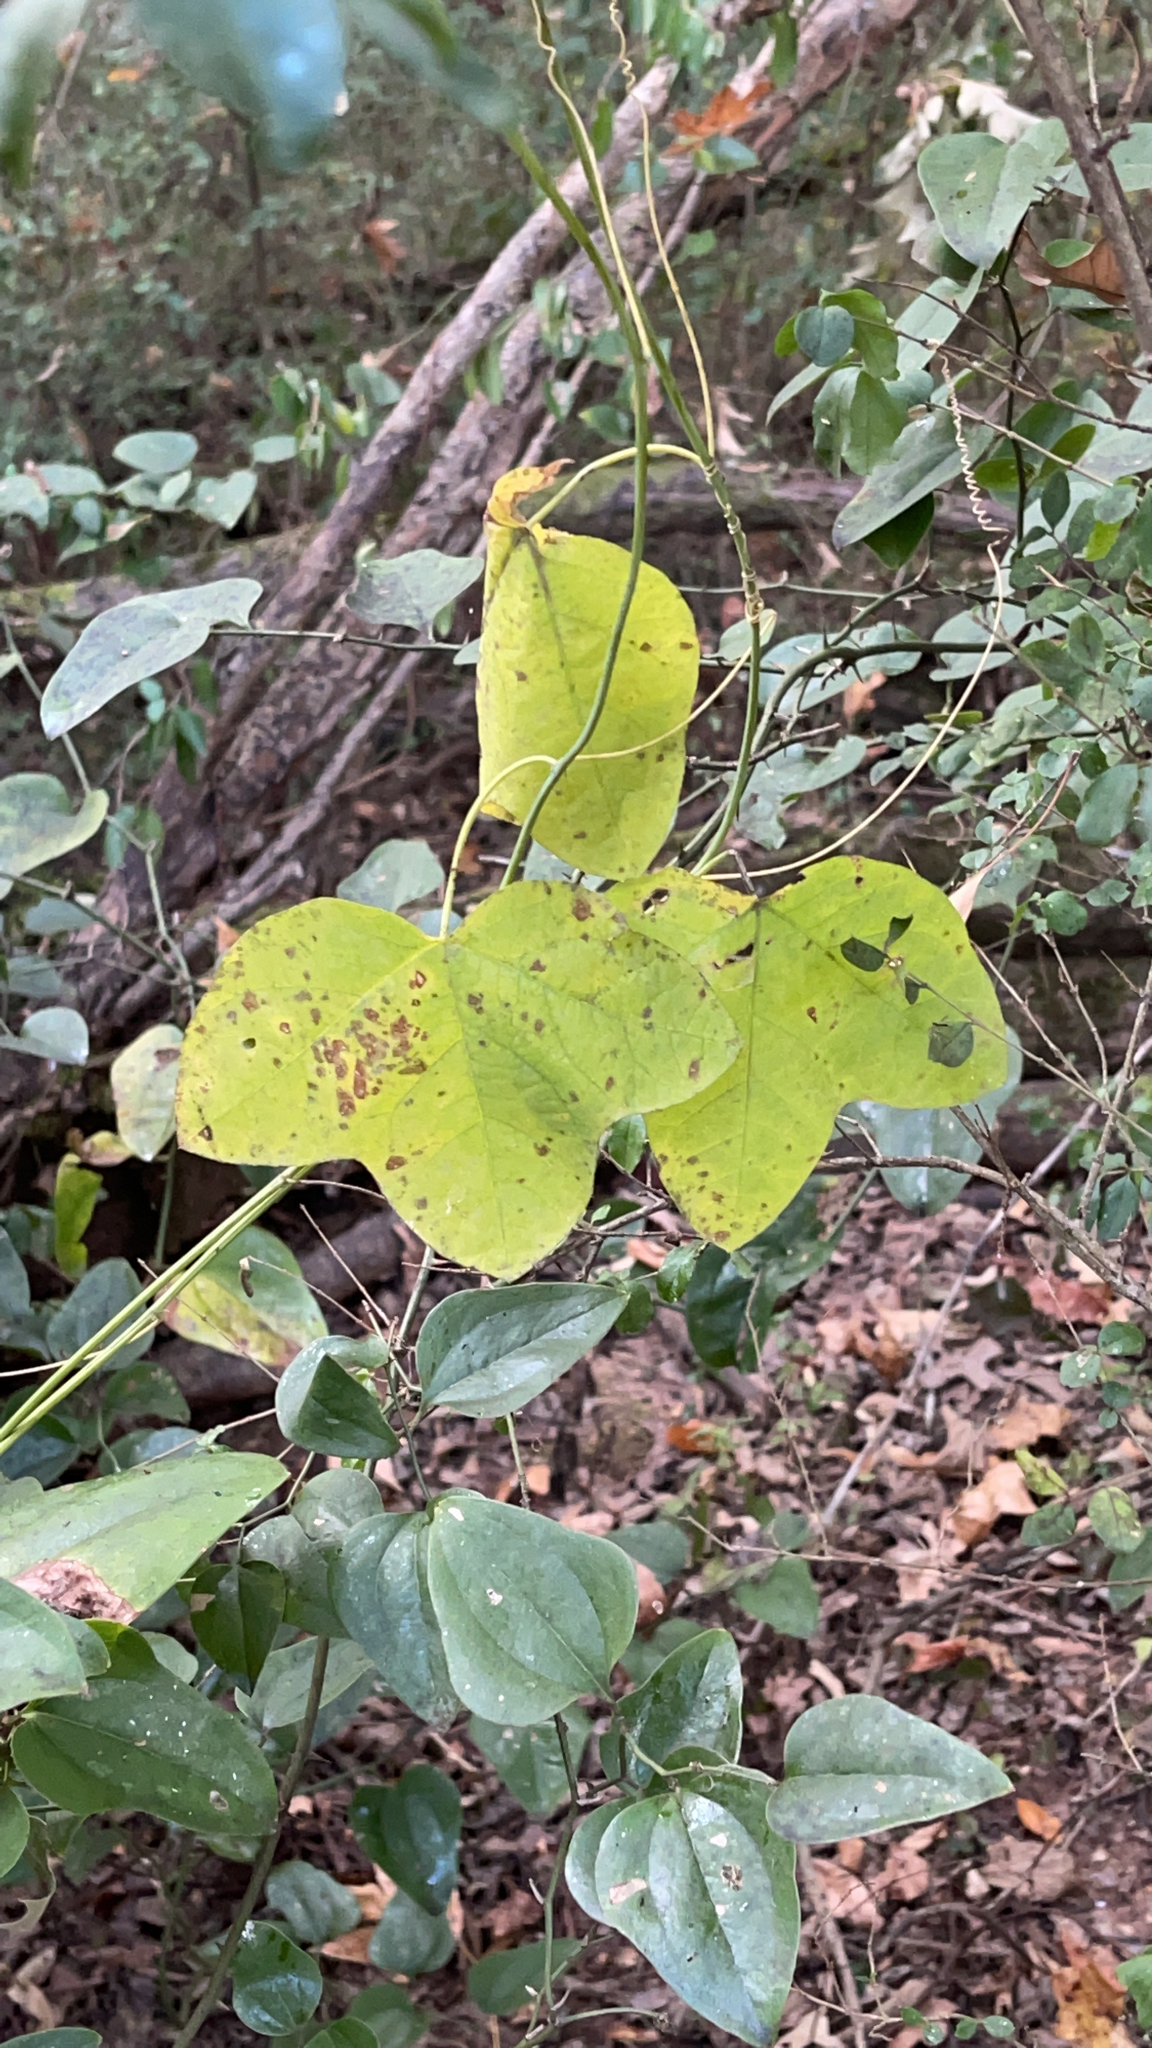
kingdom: Plantae
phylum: Tracheophyta
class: Magnoliopsida
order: Malpighiales
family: Passifloraceae
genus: Passiflora
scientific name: Passiflora lutea
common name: Yellow passionflower
